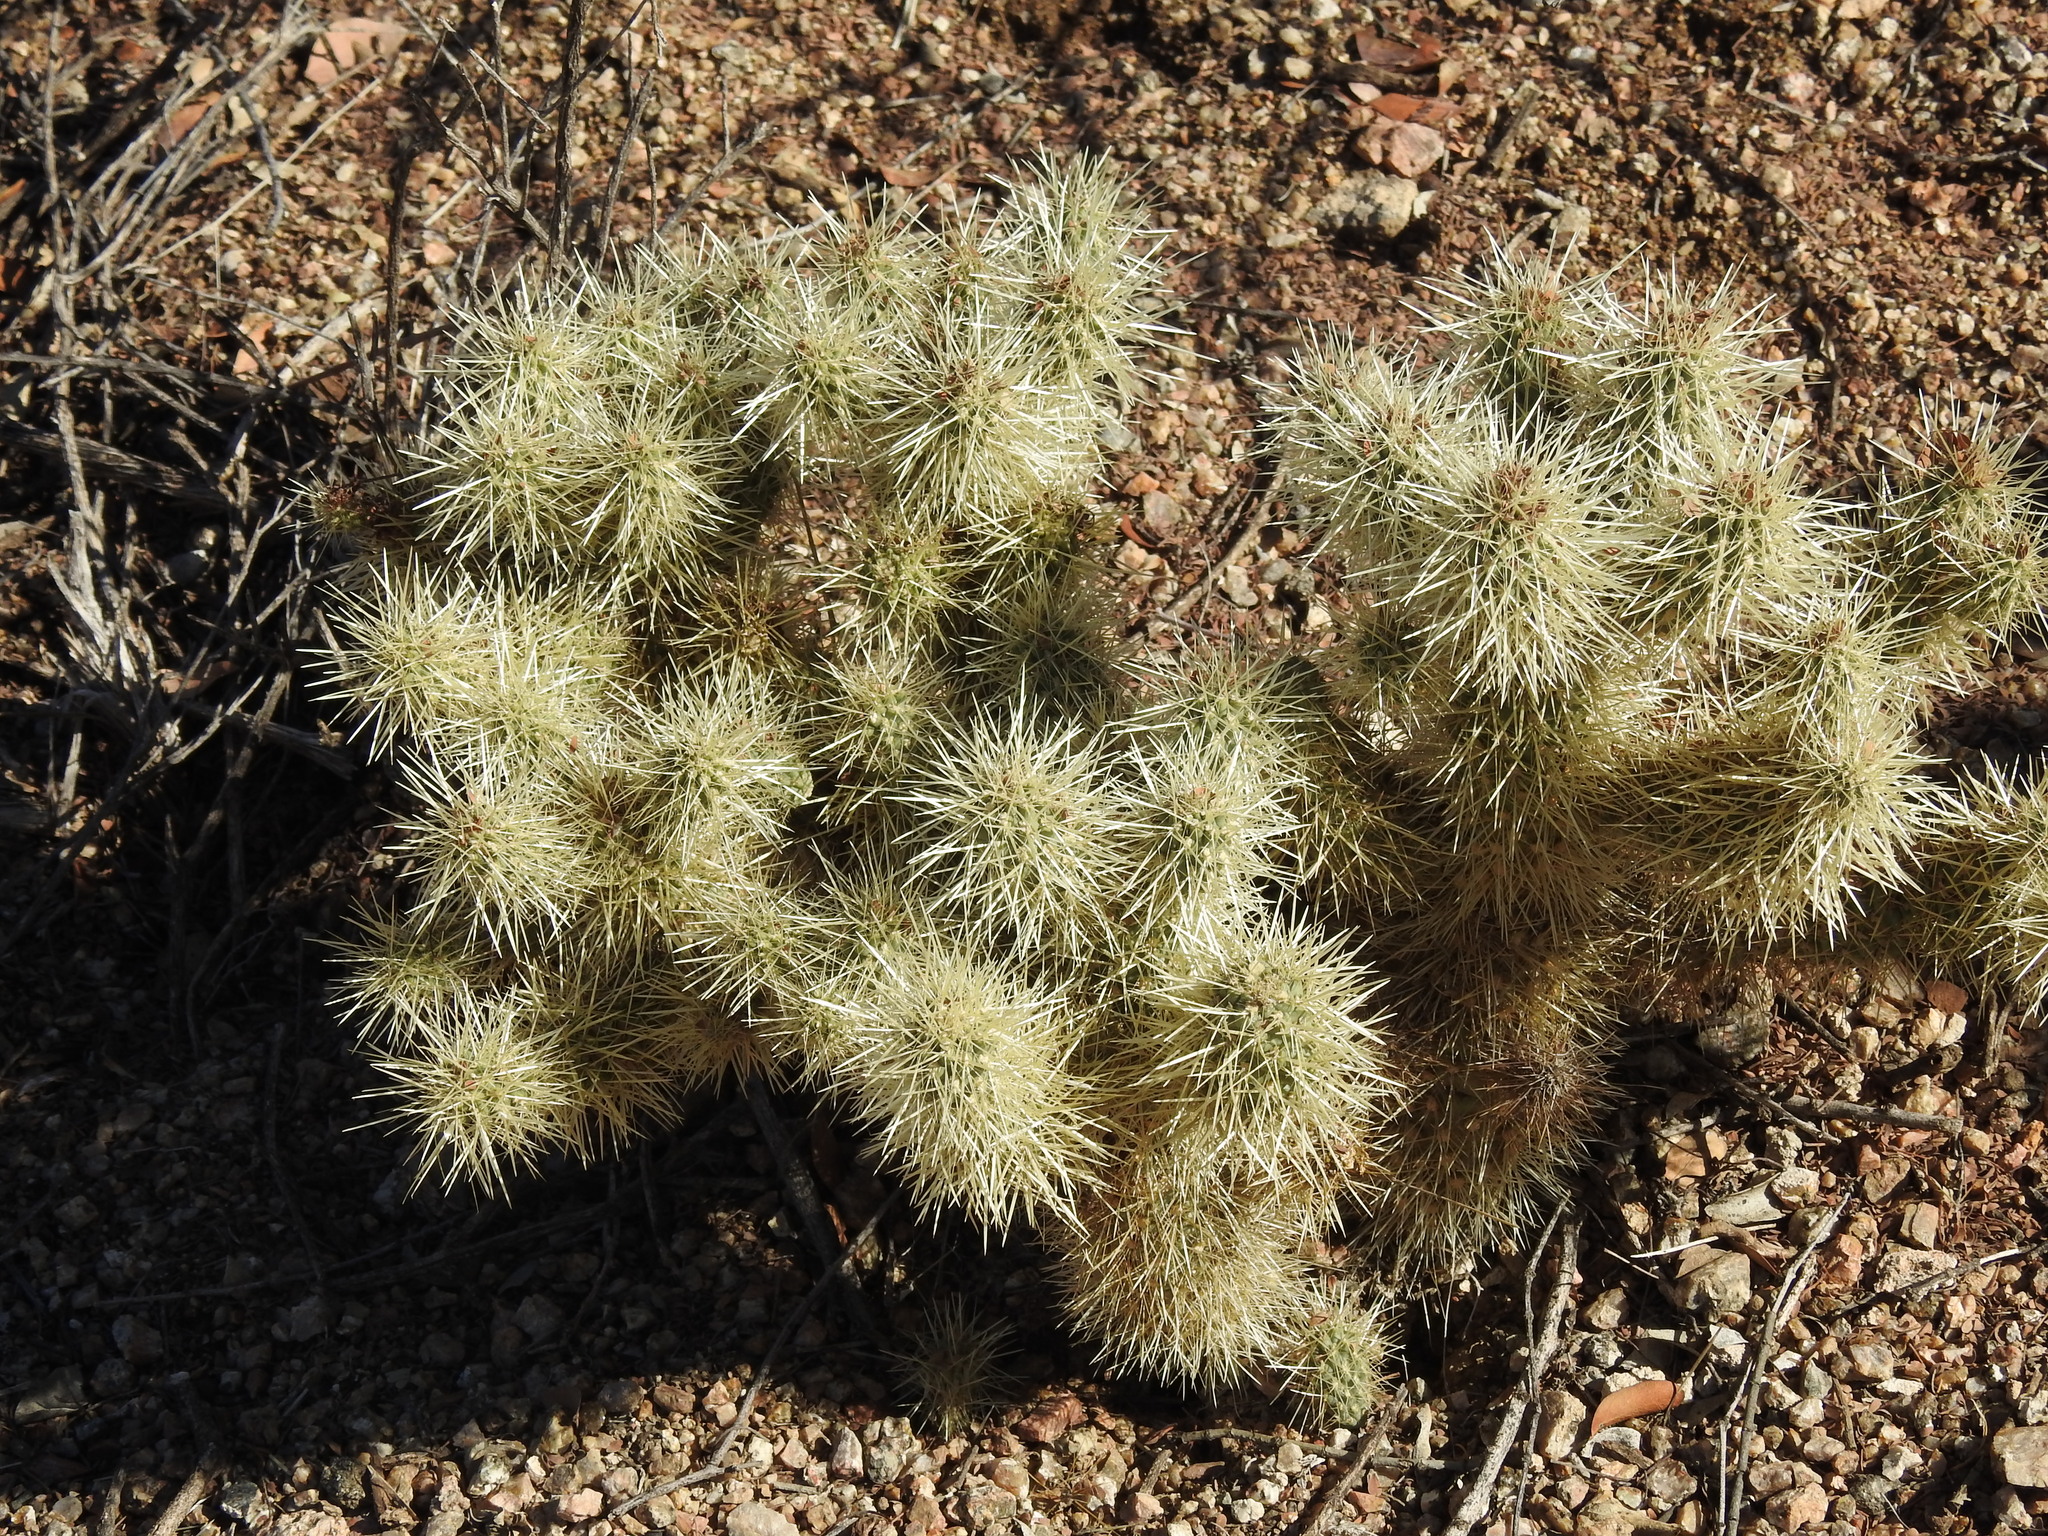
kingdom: Plantae
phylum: Tracheophyta
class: Magnoliopsida
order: Caryophyllales
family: Cactaceae
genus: Cylindropuntia
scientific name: Cylindropuntia fosbergii
